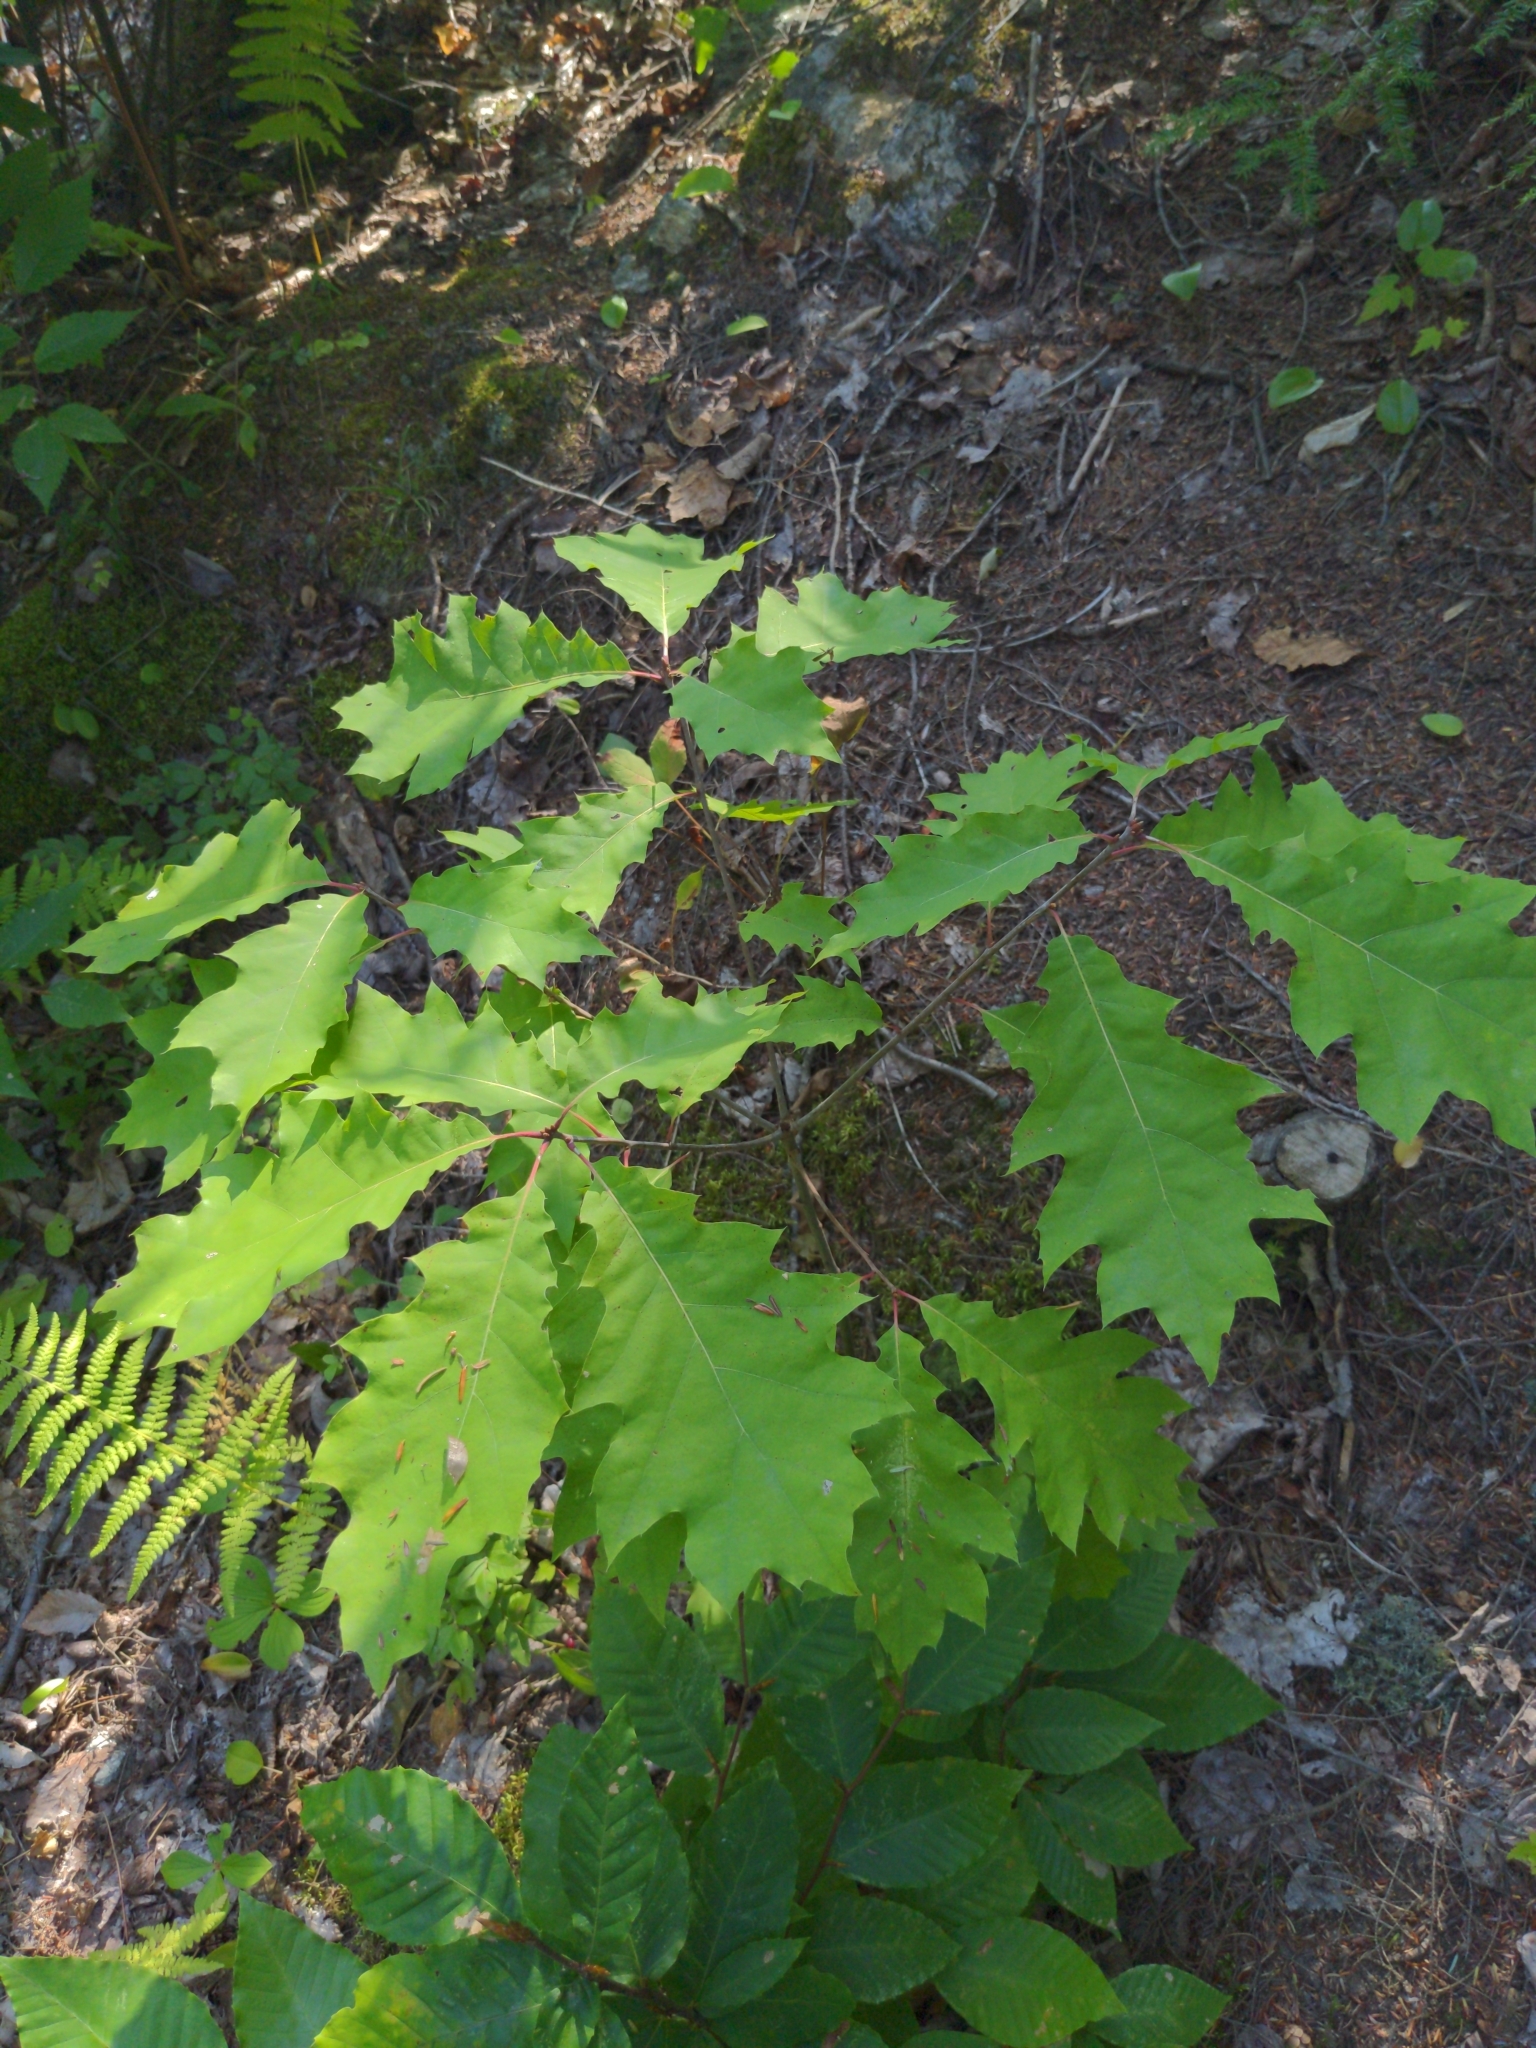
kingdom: Plantae
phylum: Tracheophyta
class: Magnoliopsida
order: Fagales
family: Fagaceae
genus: Quercus
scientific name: Quercus rubra
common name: Red oak
